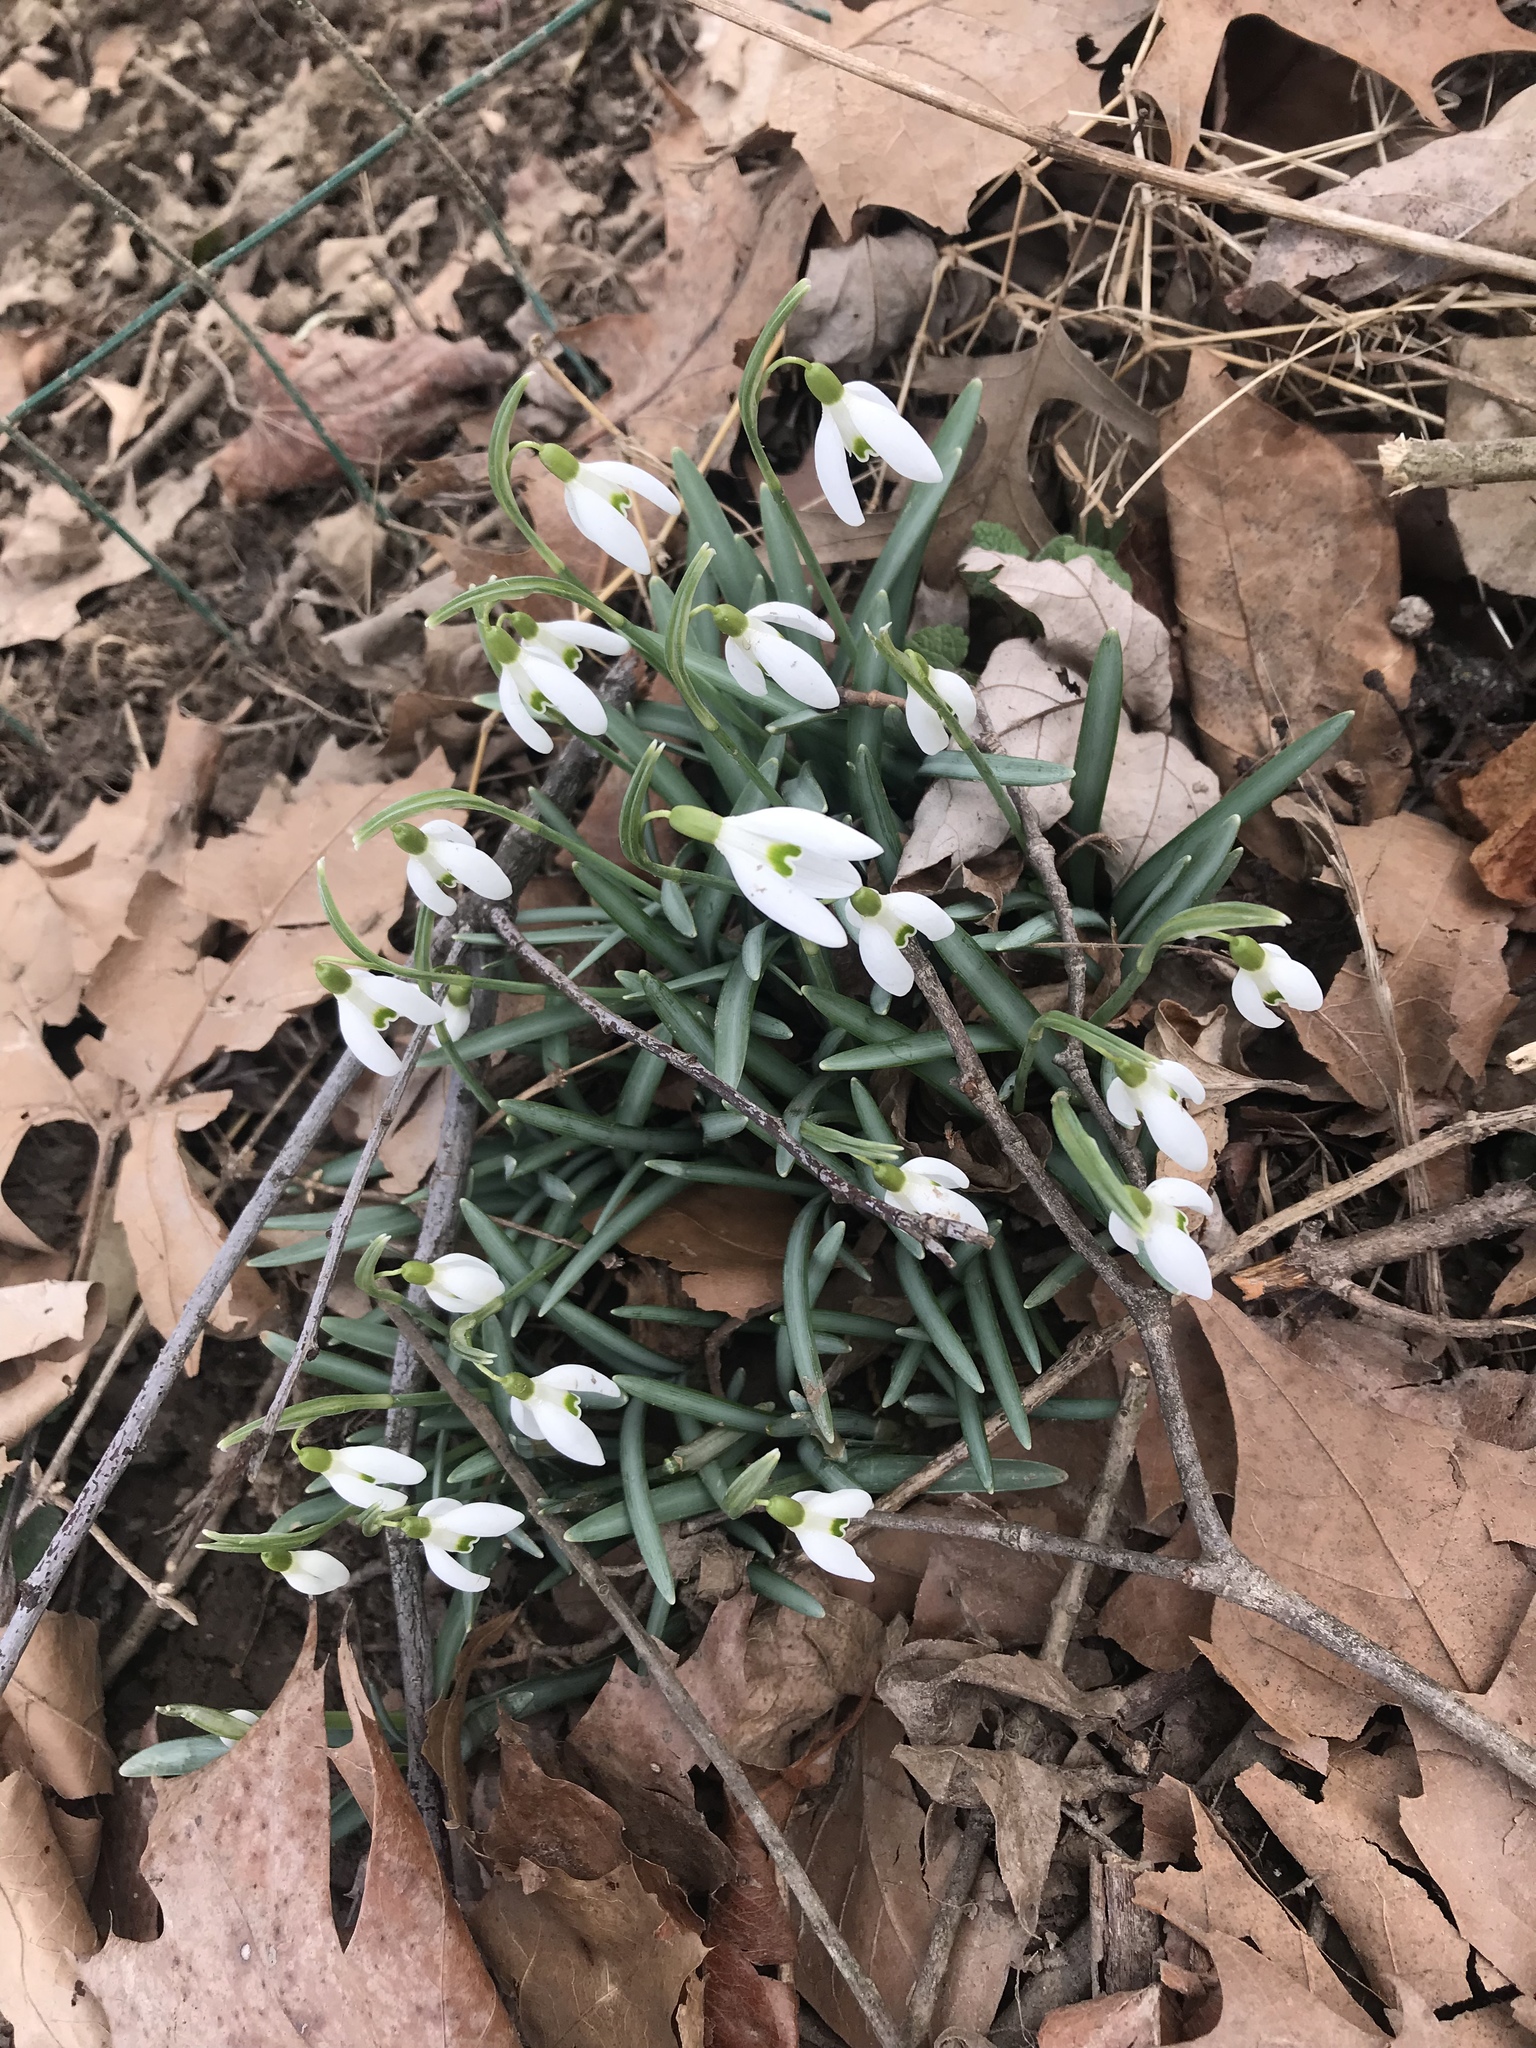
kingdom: Plantae
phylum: Tracheophyta
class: Liliopsida
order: Asparagales
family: Amaryllidaceae
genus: Galanthus
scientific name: Galanthus nivalis
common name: Snowdrop
